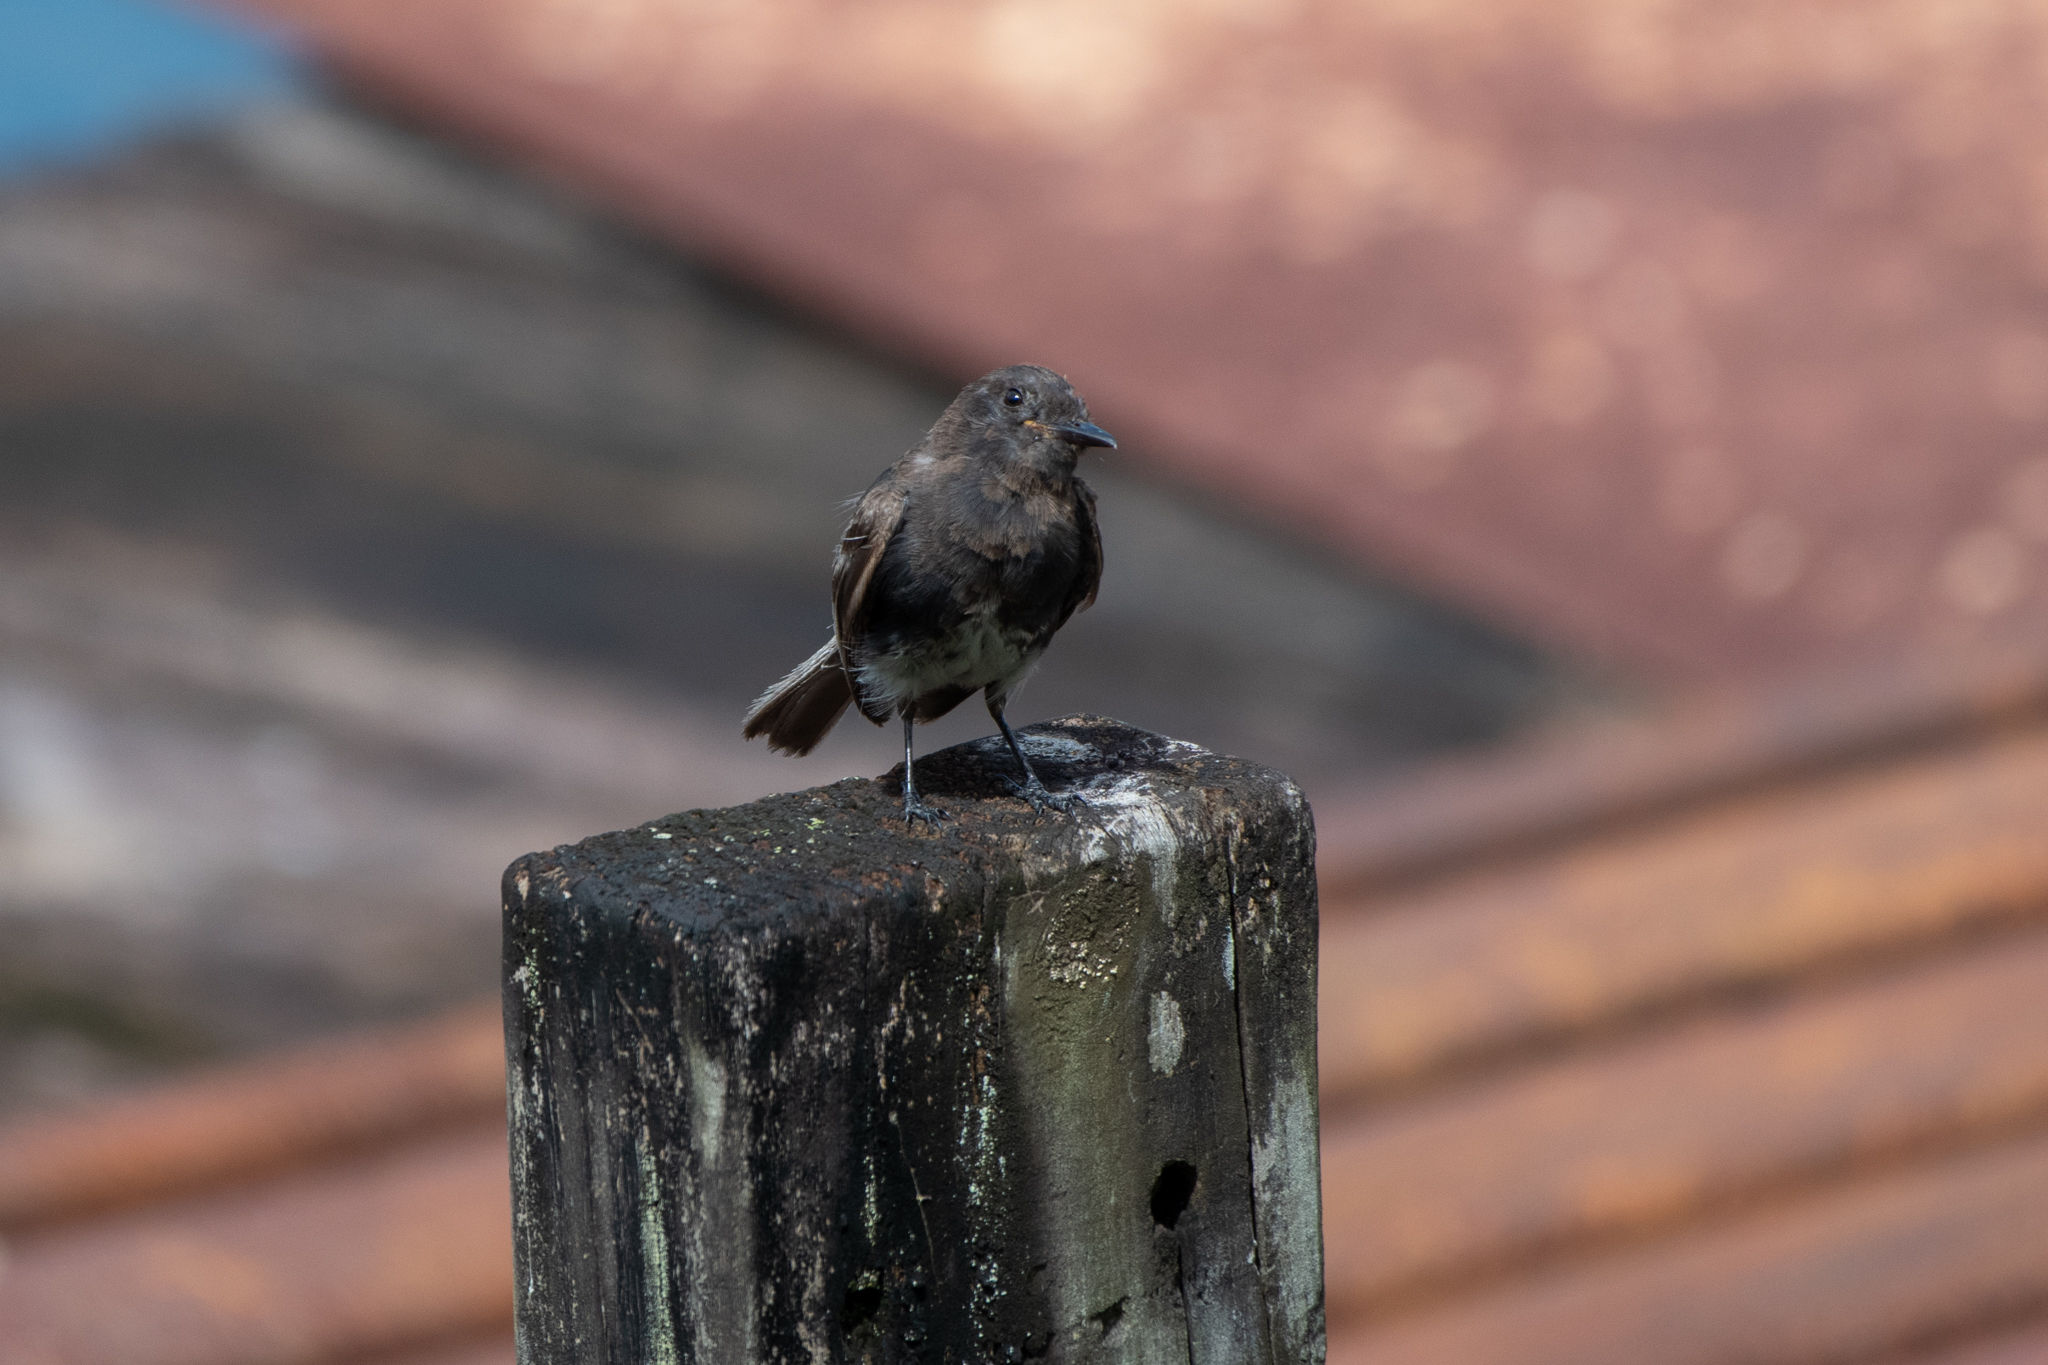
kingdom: Animalia
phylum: Chordata
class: Aves
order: Passeriformes
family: Tyrannidae
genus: Sayornis
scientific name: Sayornis nigricans
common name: Black phoebe
